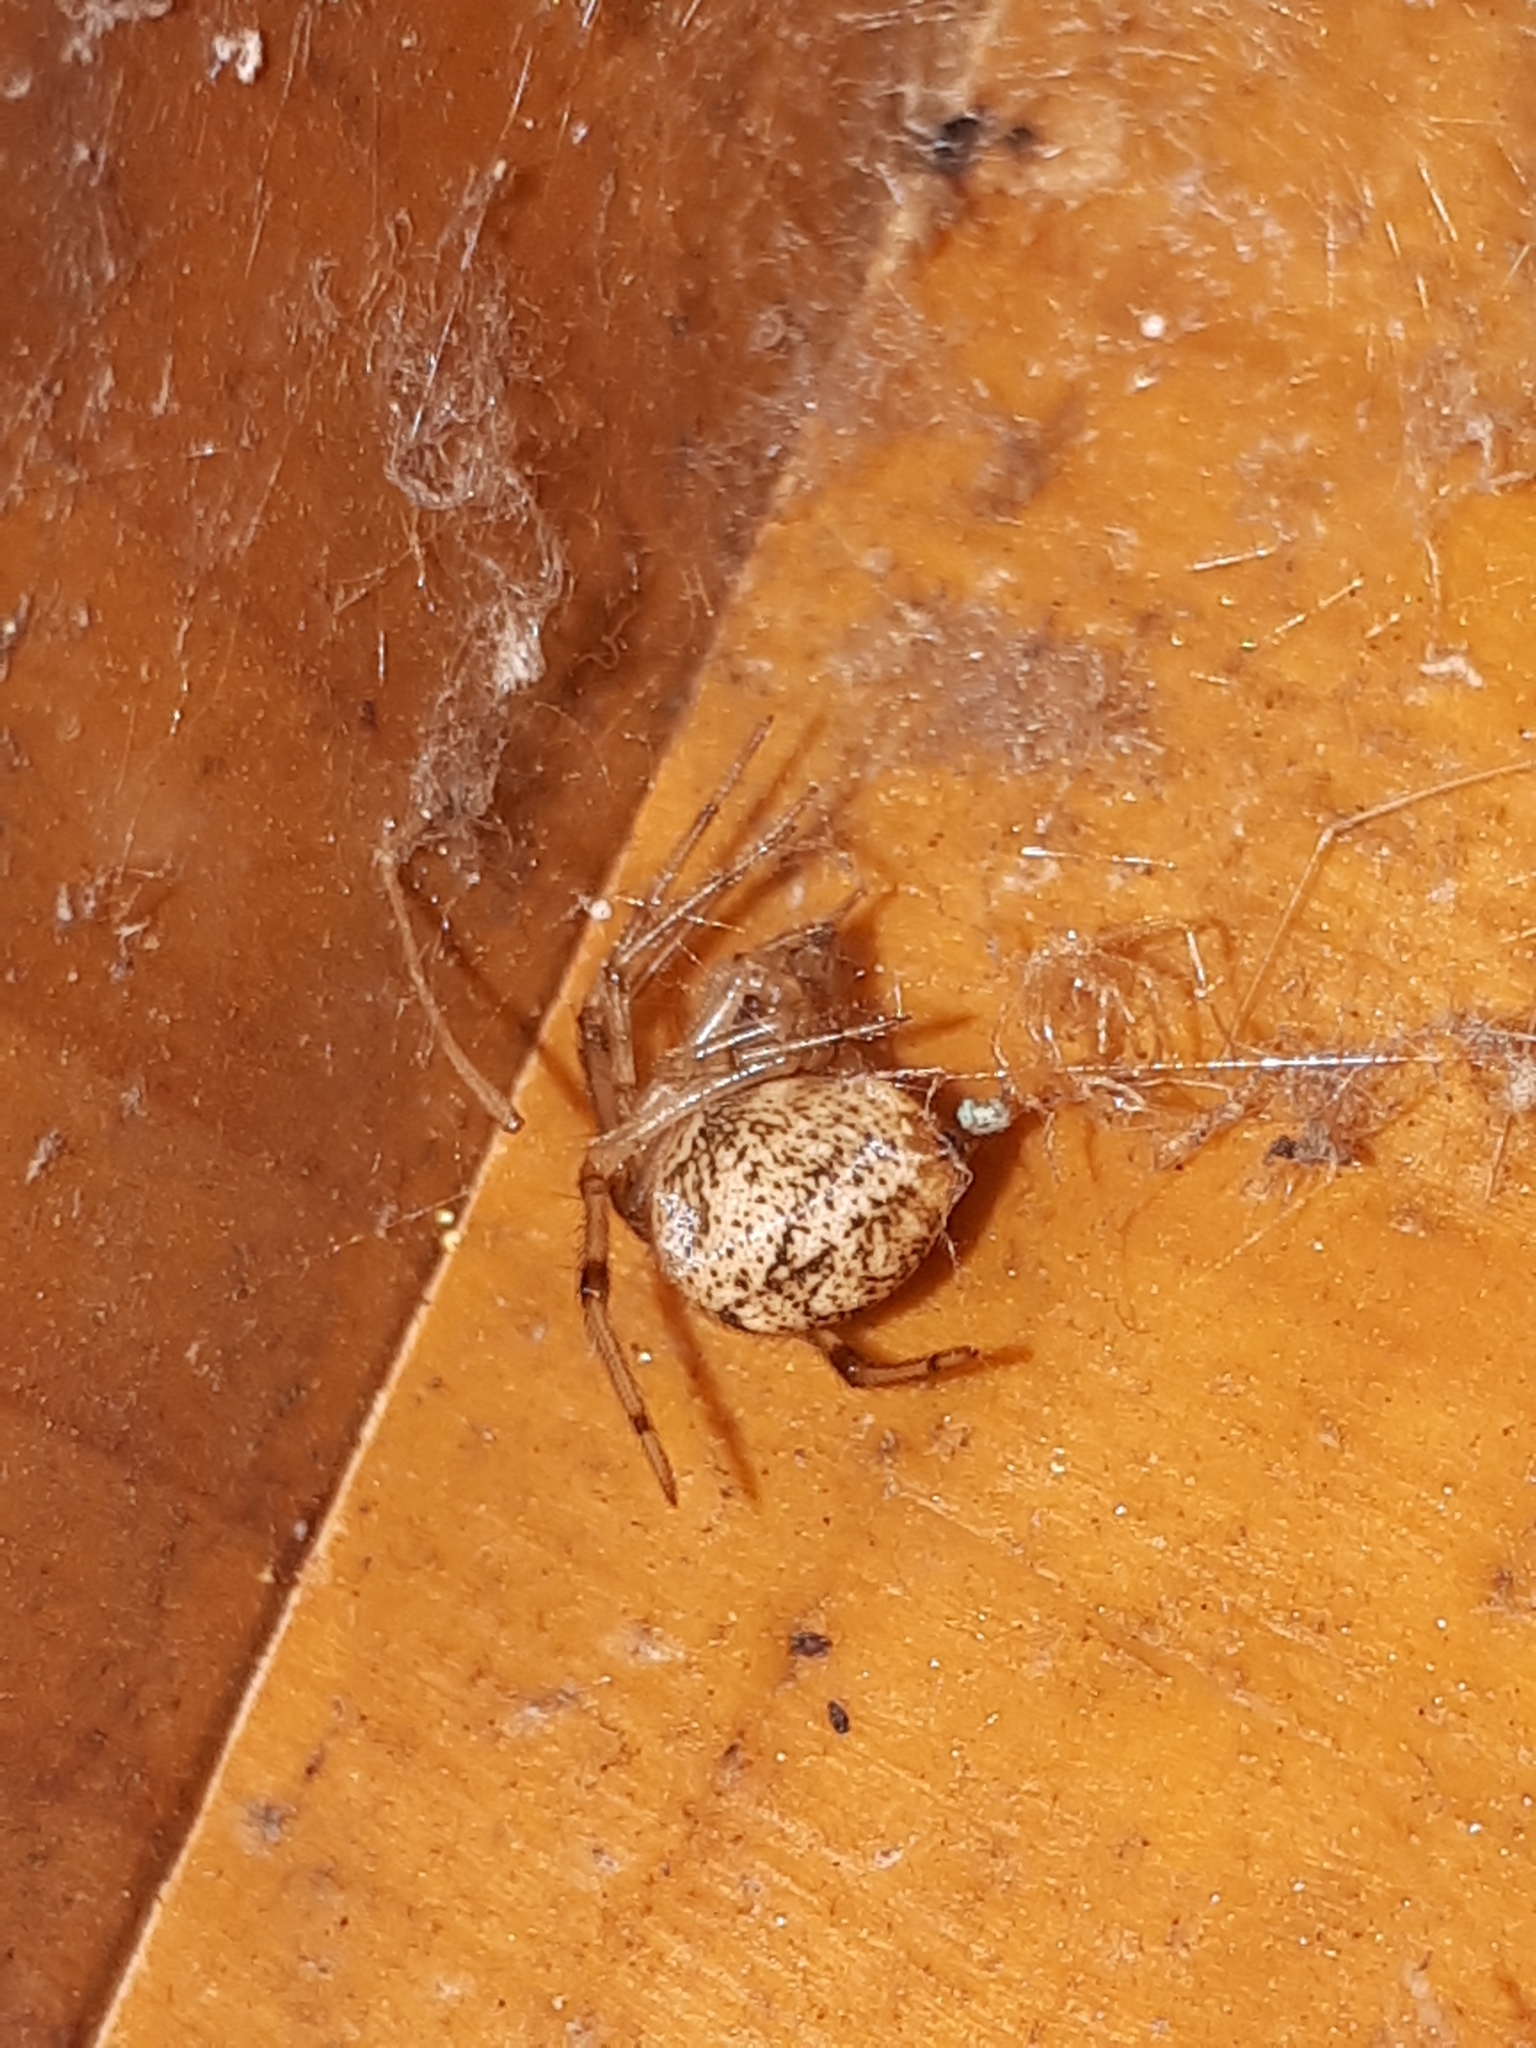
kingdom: Animalia
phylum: Arthropoda
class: Arachnida
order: Araneae
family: Theridiidae
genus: Parasteatoda
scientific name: Parasteatoda tepidariorum
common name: Common house spider
